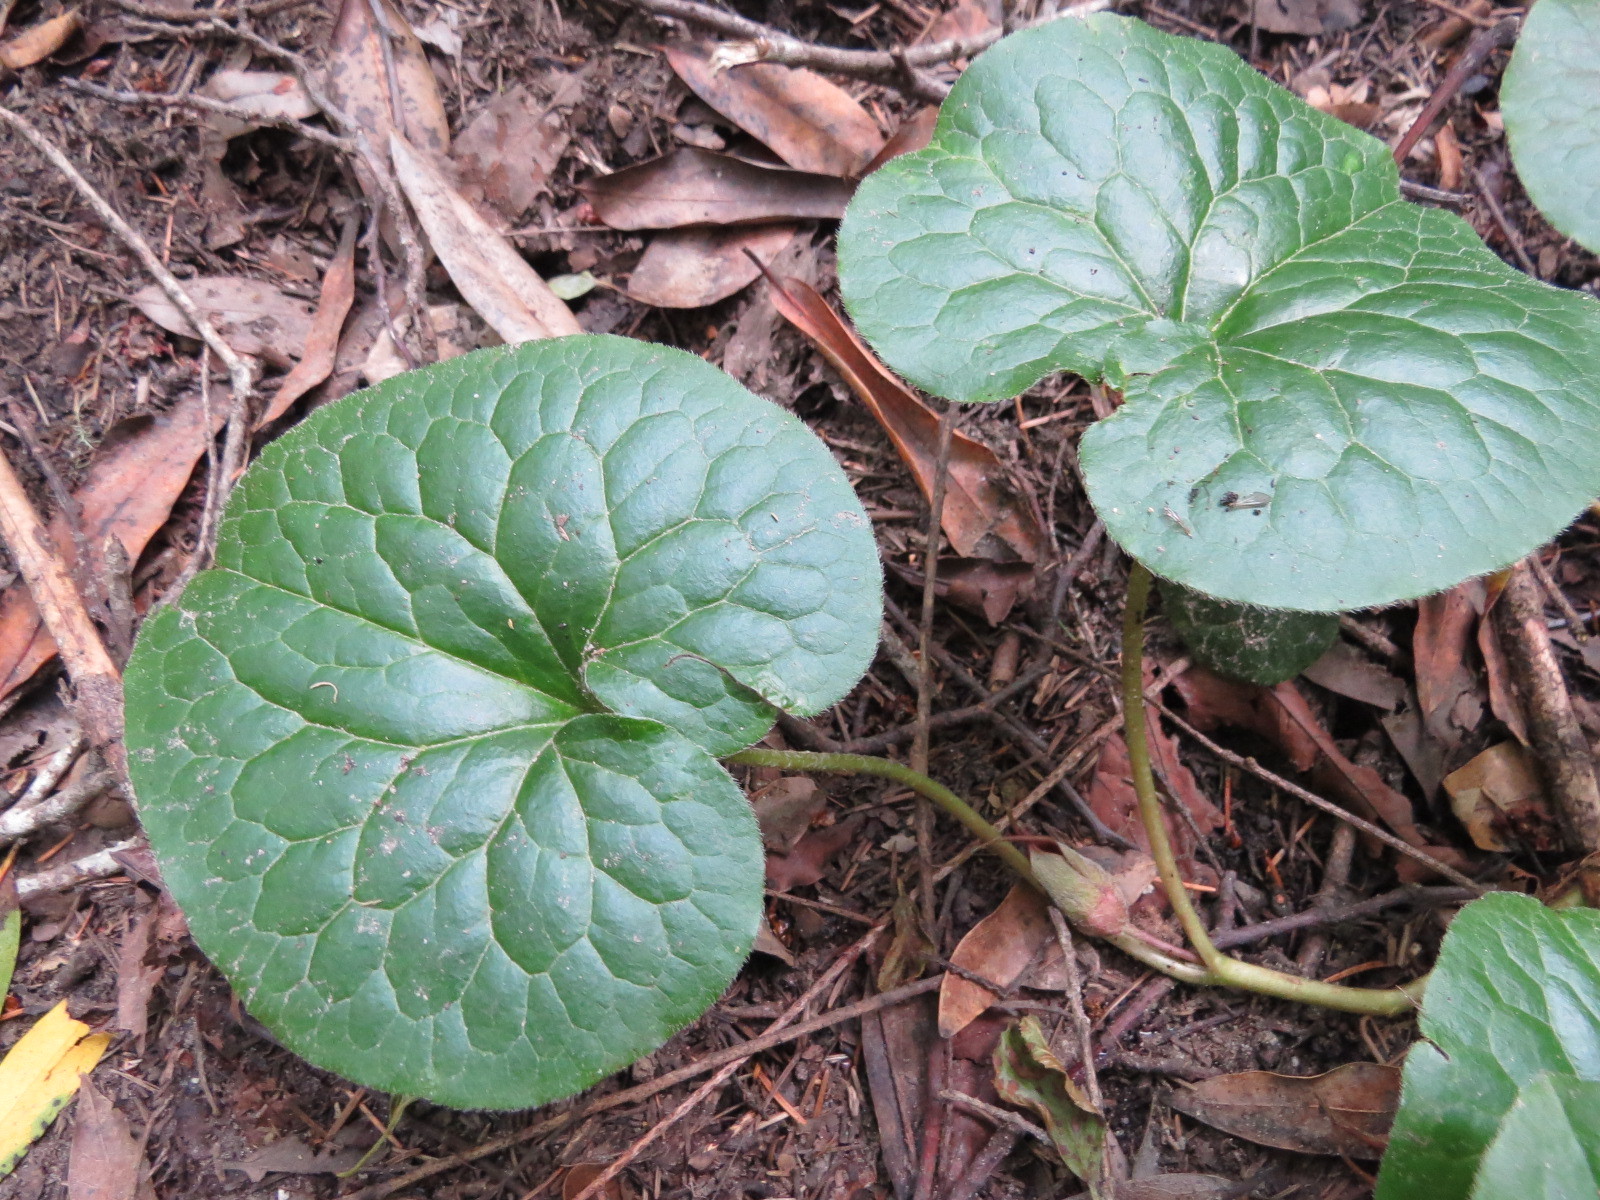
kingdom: Plantae
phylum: Tracheophyta
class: Magnoliopsida
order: Piperales
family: Aristolochiaceae
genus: Asarum
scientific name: Asarum caudatum
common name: Wild ginger
